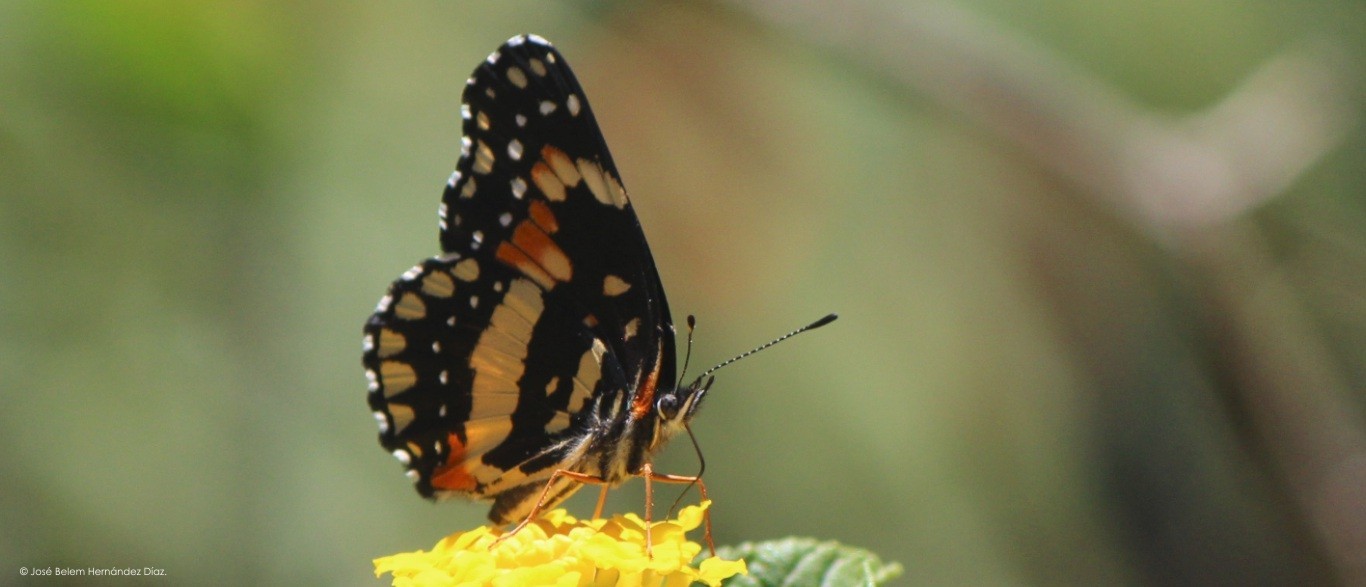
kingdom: Animalia
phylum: Arthropoda
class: Insecta
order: Lepidoptera
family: Nymphalidae
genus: Chlosyne
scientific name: Chlosyne lacinia
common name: Bordered patch
